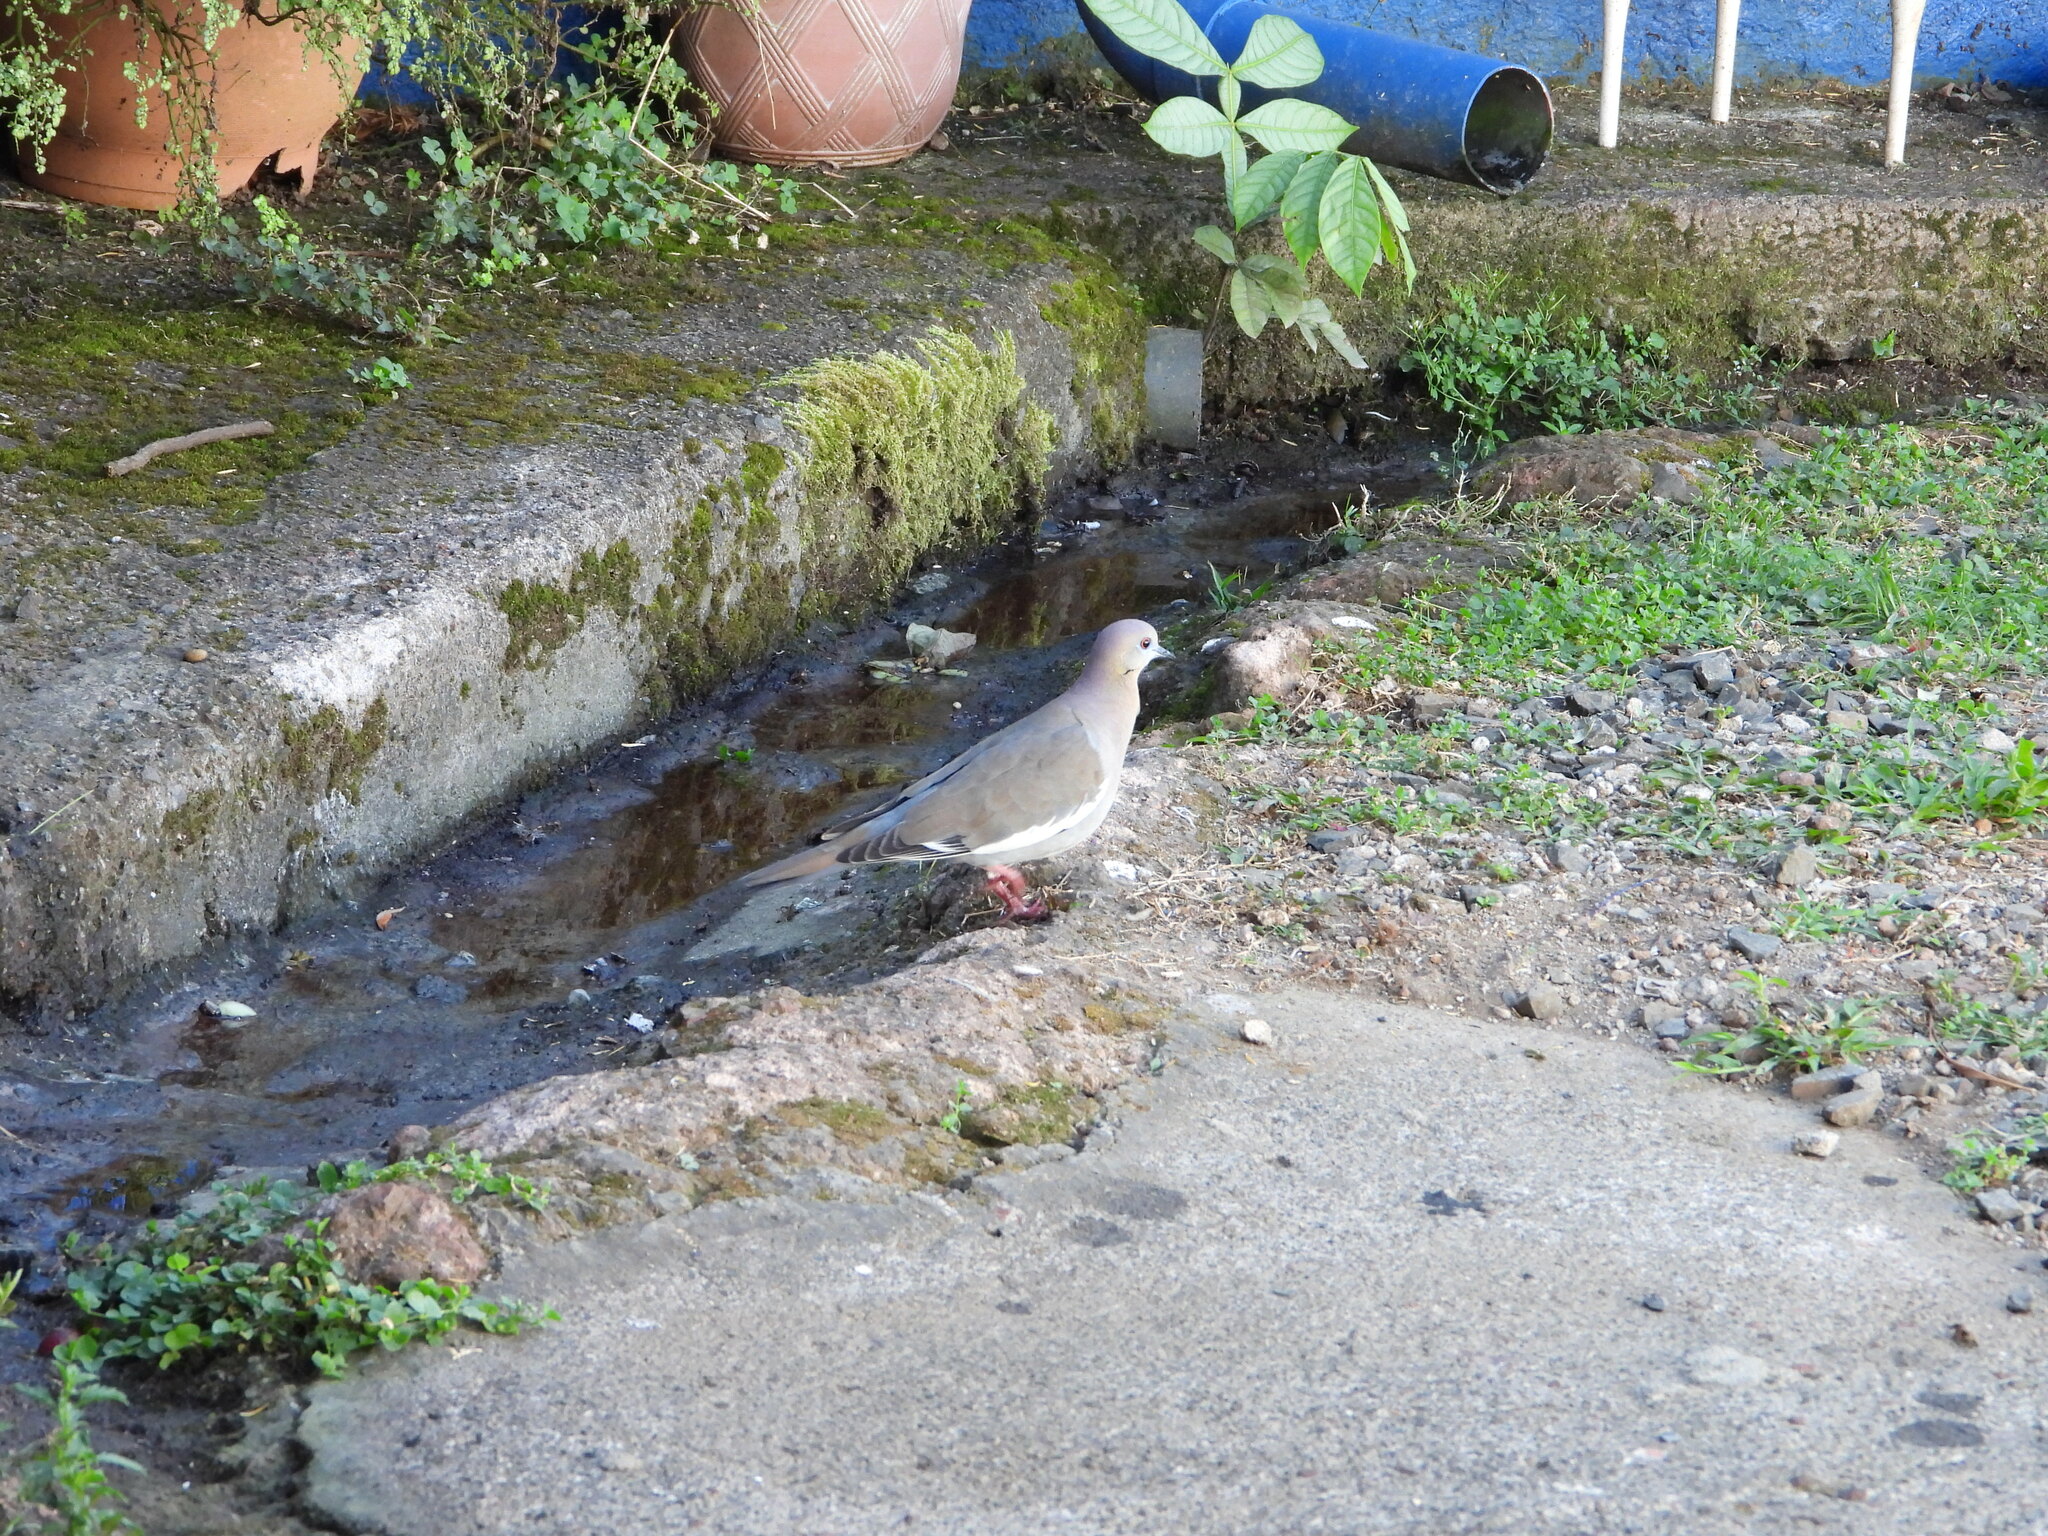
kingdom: Animalia
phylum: Chordata
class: Aves
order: Columbiformes
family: Columbidae
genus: Zenaida
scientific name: Zenaida asiatica
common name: White-winged dove
